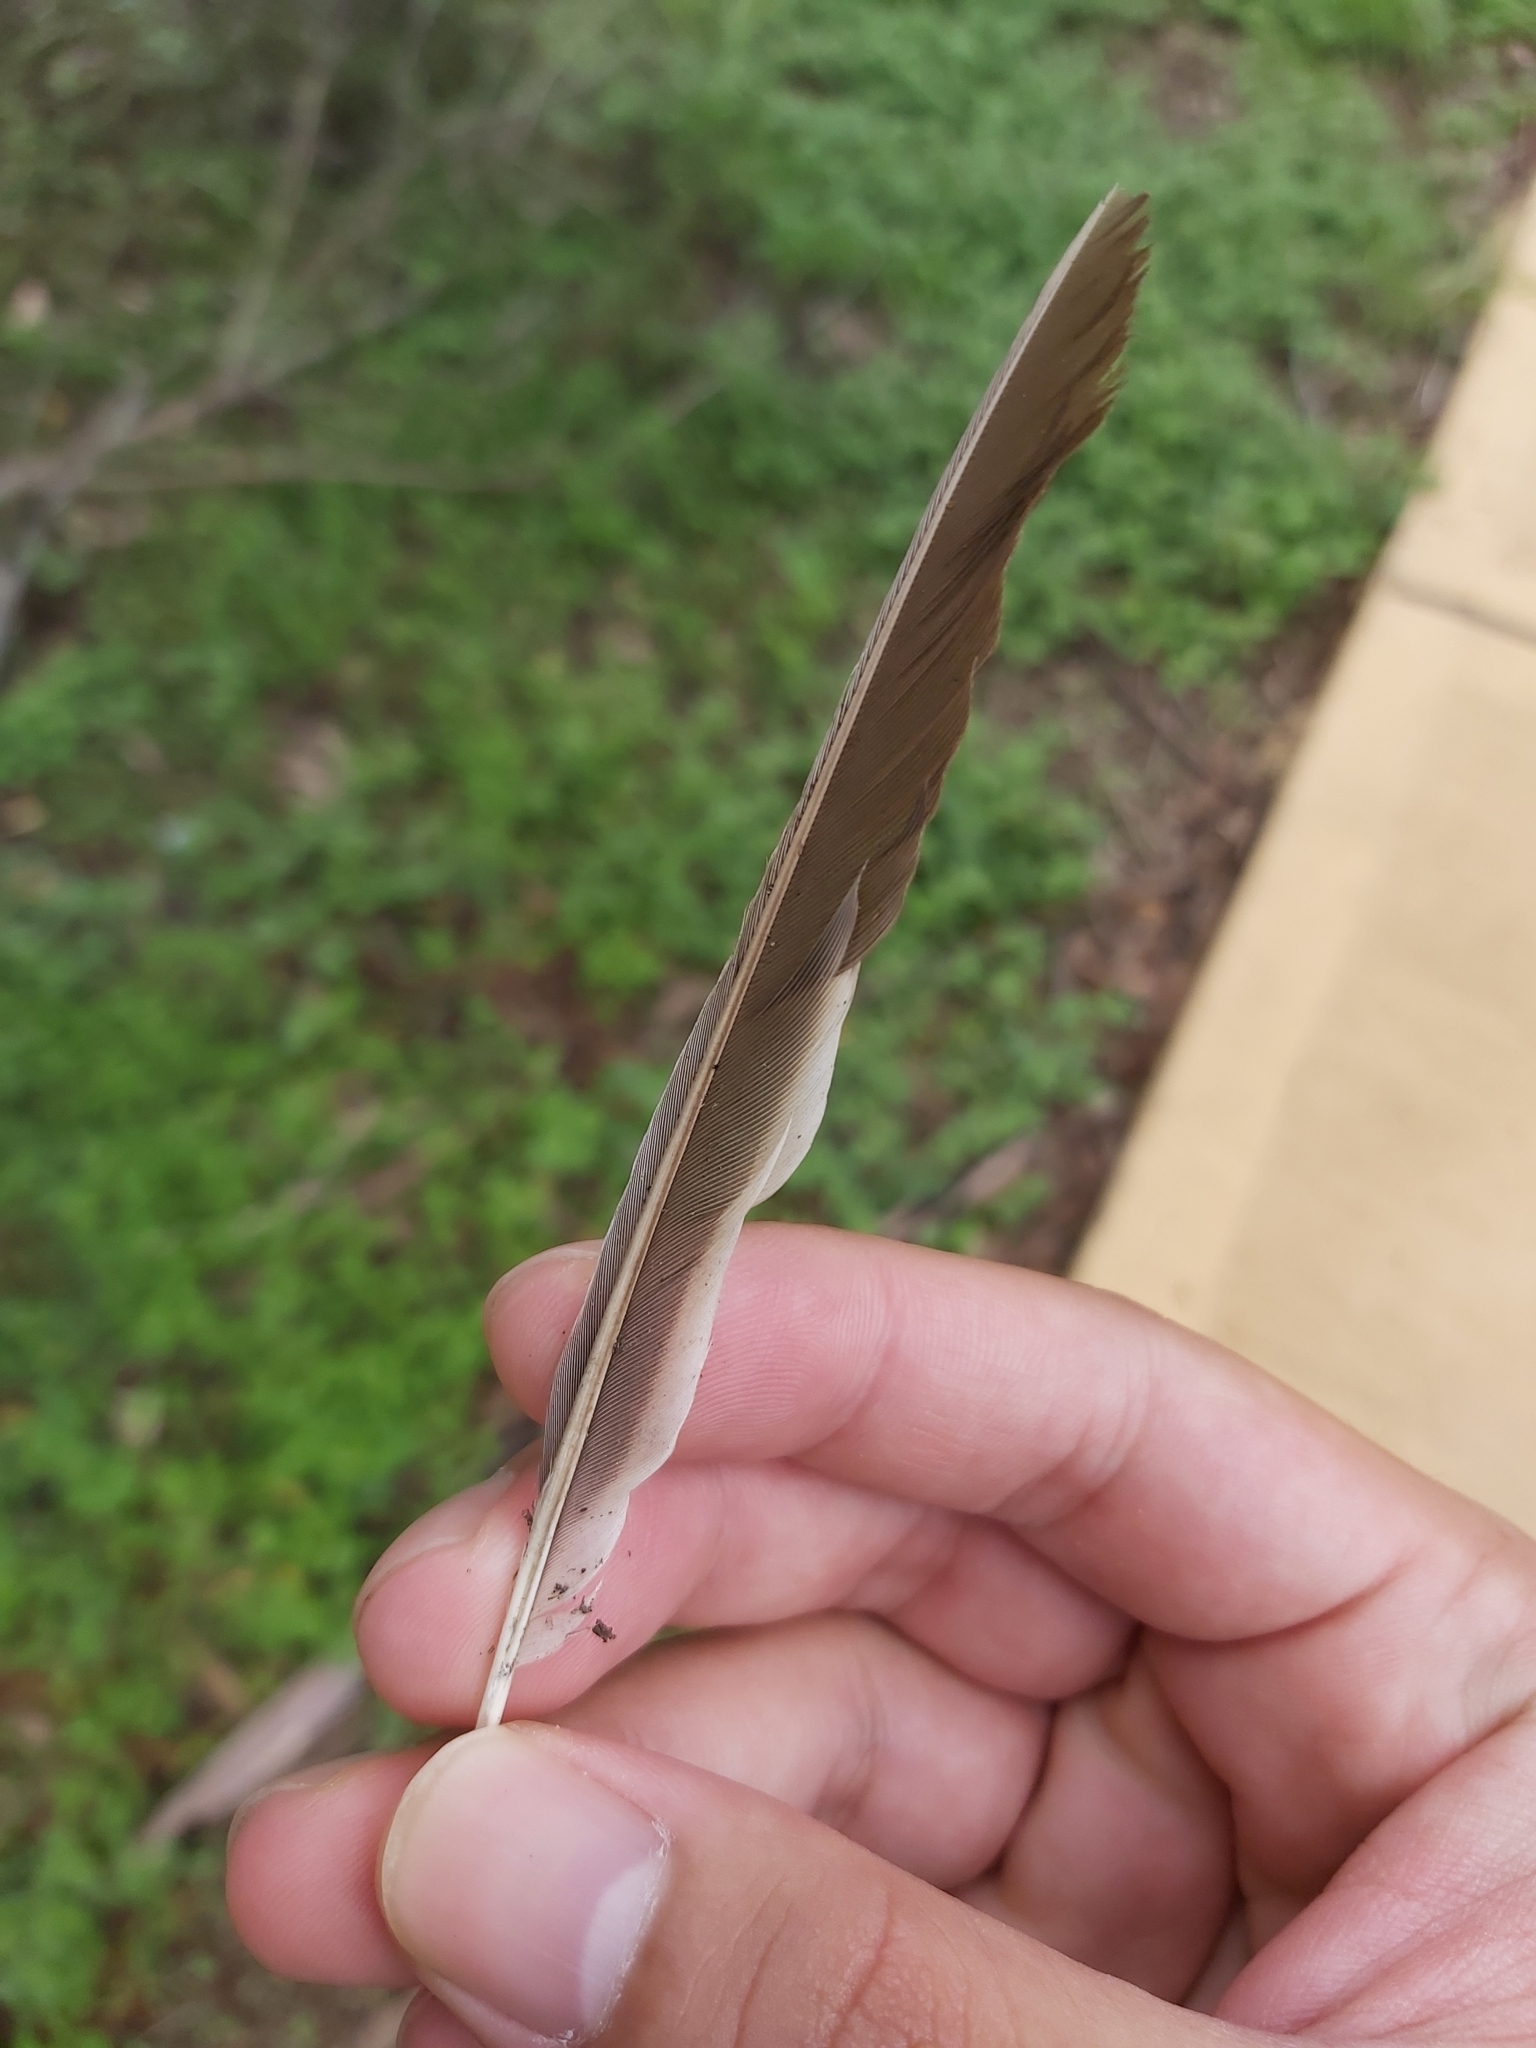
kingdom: Animalia
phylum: Chordata
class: Aves
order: Passeriformes
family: Meliphagidae
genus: Manorina
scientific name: Manorina melanocephala
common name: Noisy miner
